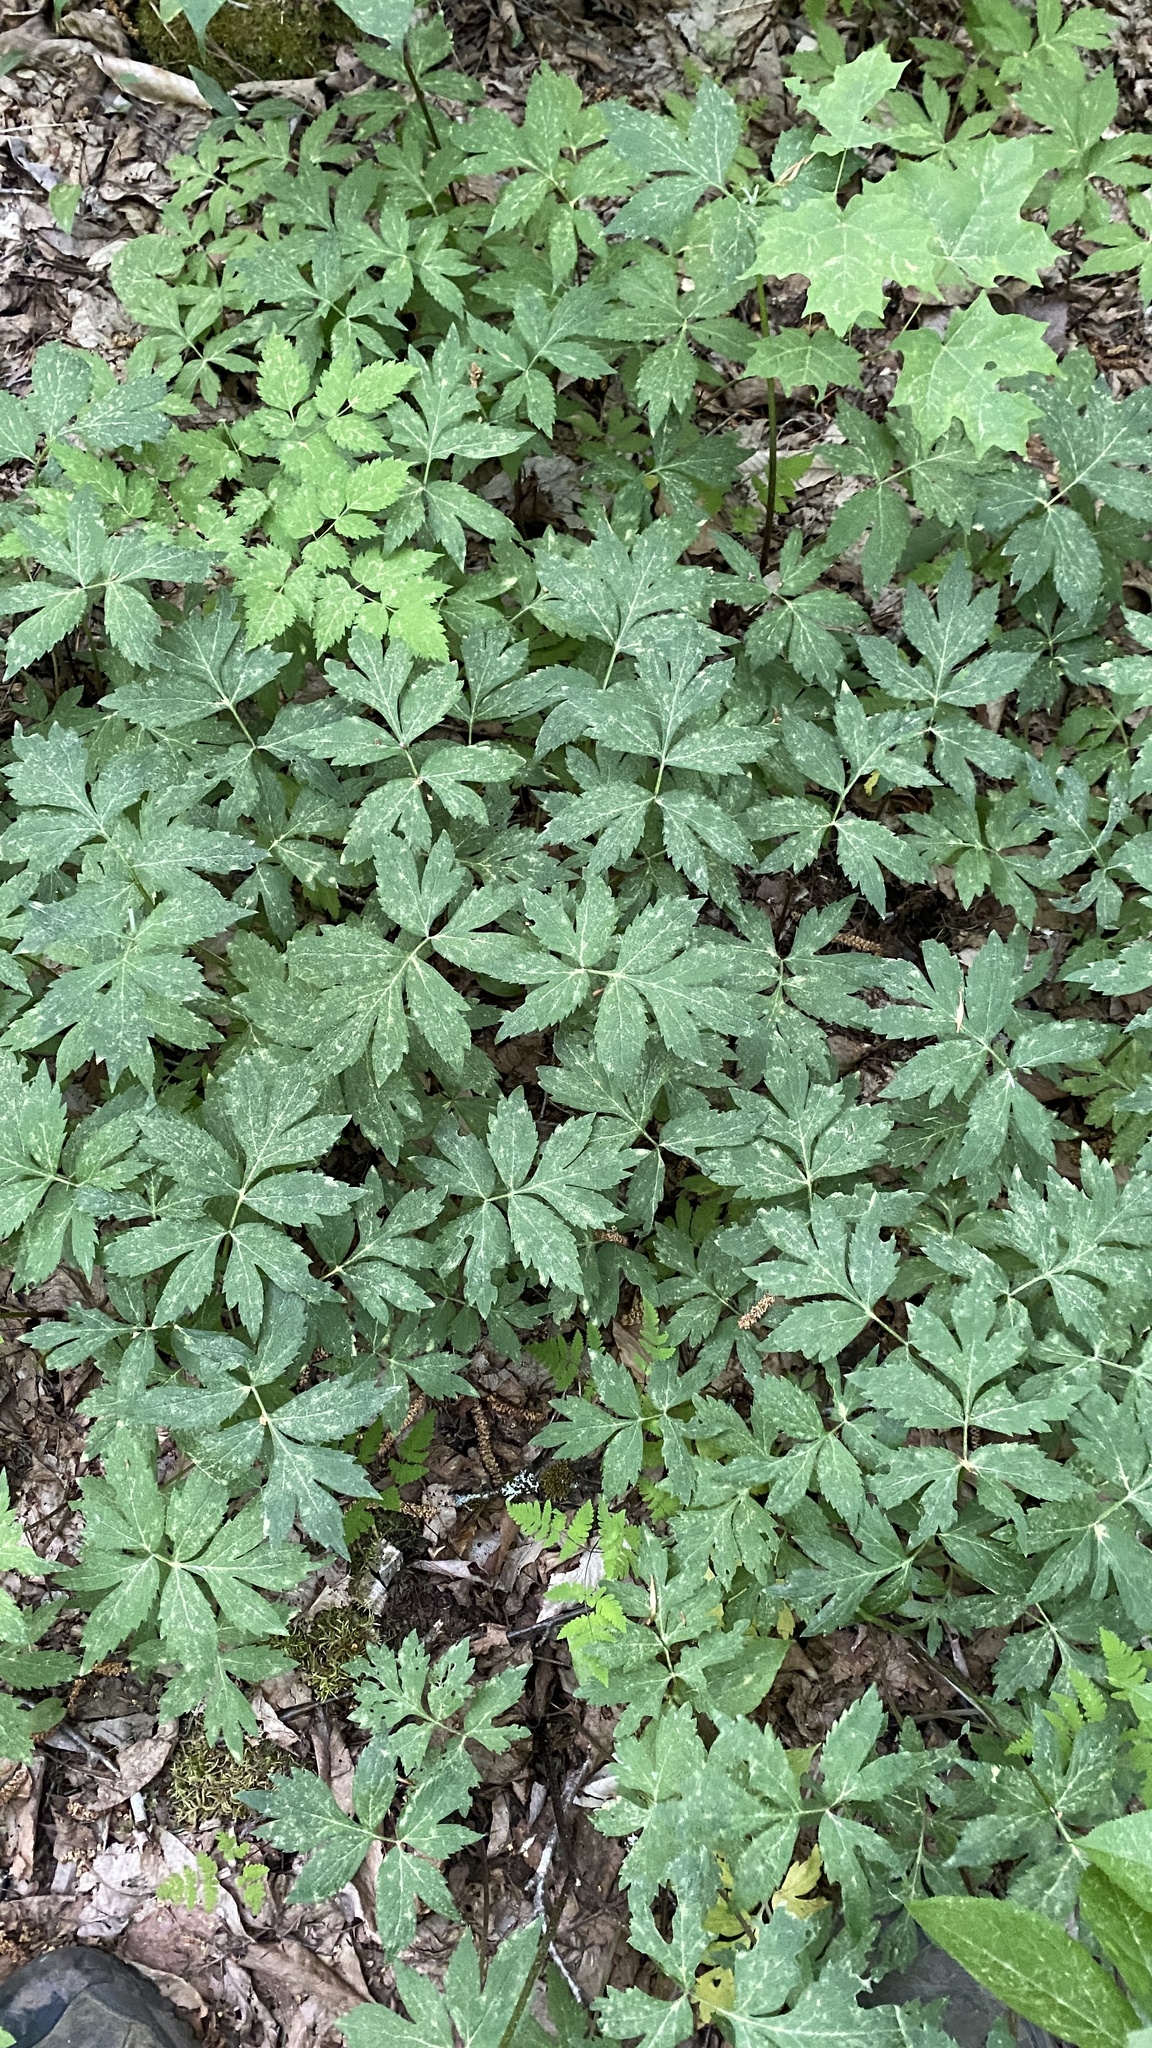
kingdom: Plantae
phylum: Tracheophyta
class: Magnoliopsida
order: Boraginales
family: Hydrophyllaceae
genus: Hydrophyllum
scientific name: Hydrophyllum virginianum
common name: Virginia waterleaf
